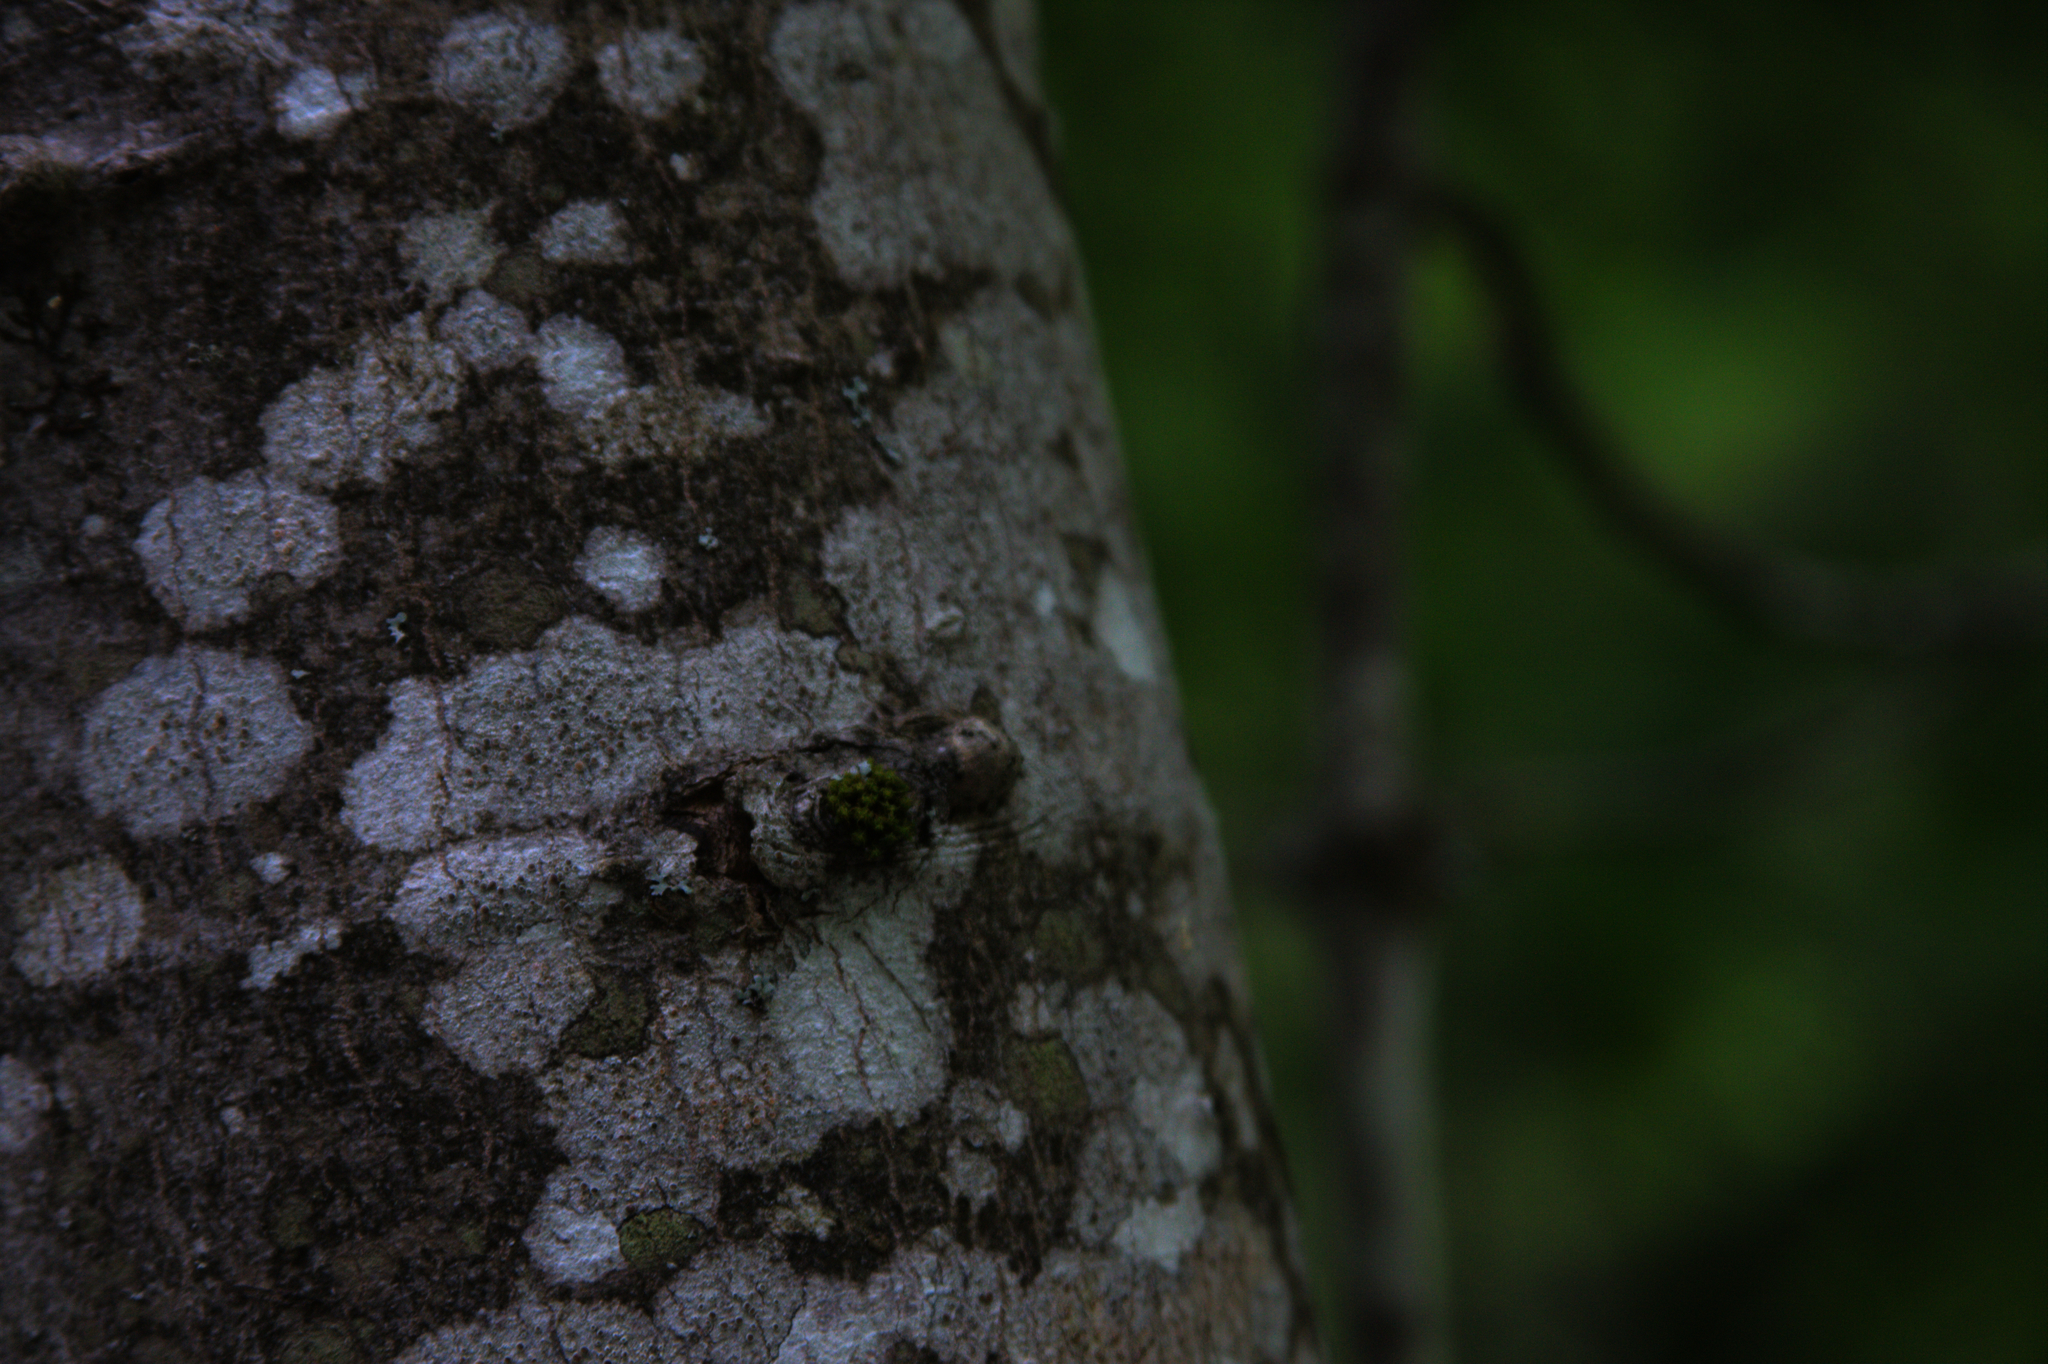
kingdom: Plantae
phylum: Bryophyta
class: Bryopsida
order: Orthotrichales
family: Orthotrichaceae
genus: Ulota
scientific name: Ulota crispa
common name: Crisped pincushion moss
